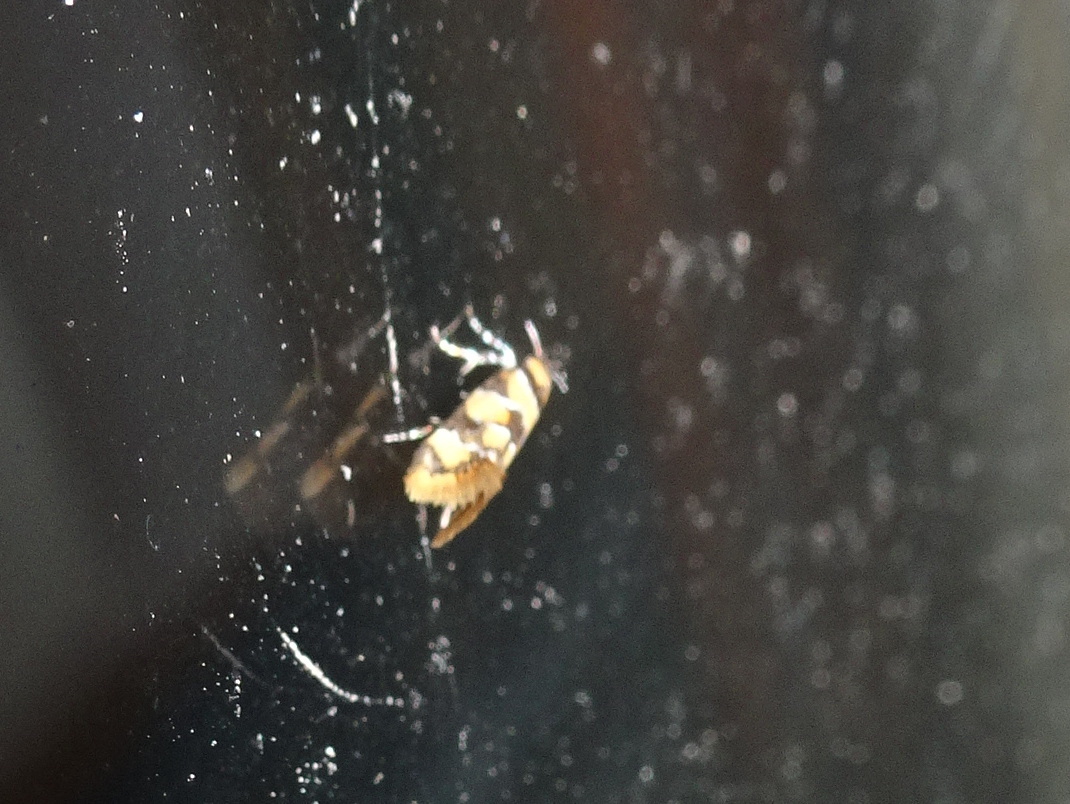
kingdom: Animalia
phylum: Arthropoda
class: Insecta
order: Lepidoptera
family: Oecophoridae
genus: Decantha
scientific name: Decantha borkhausenii
